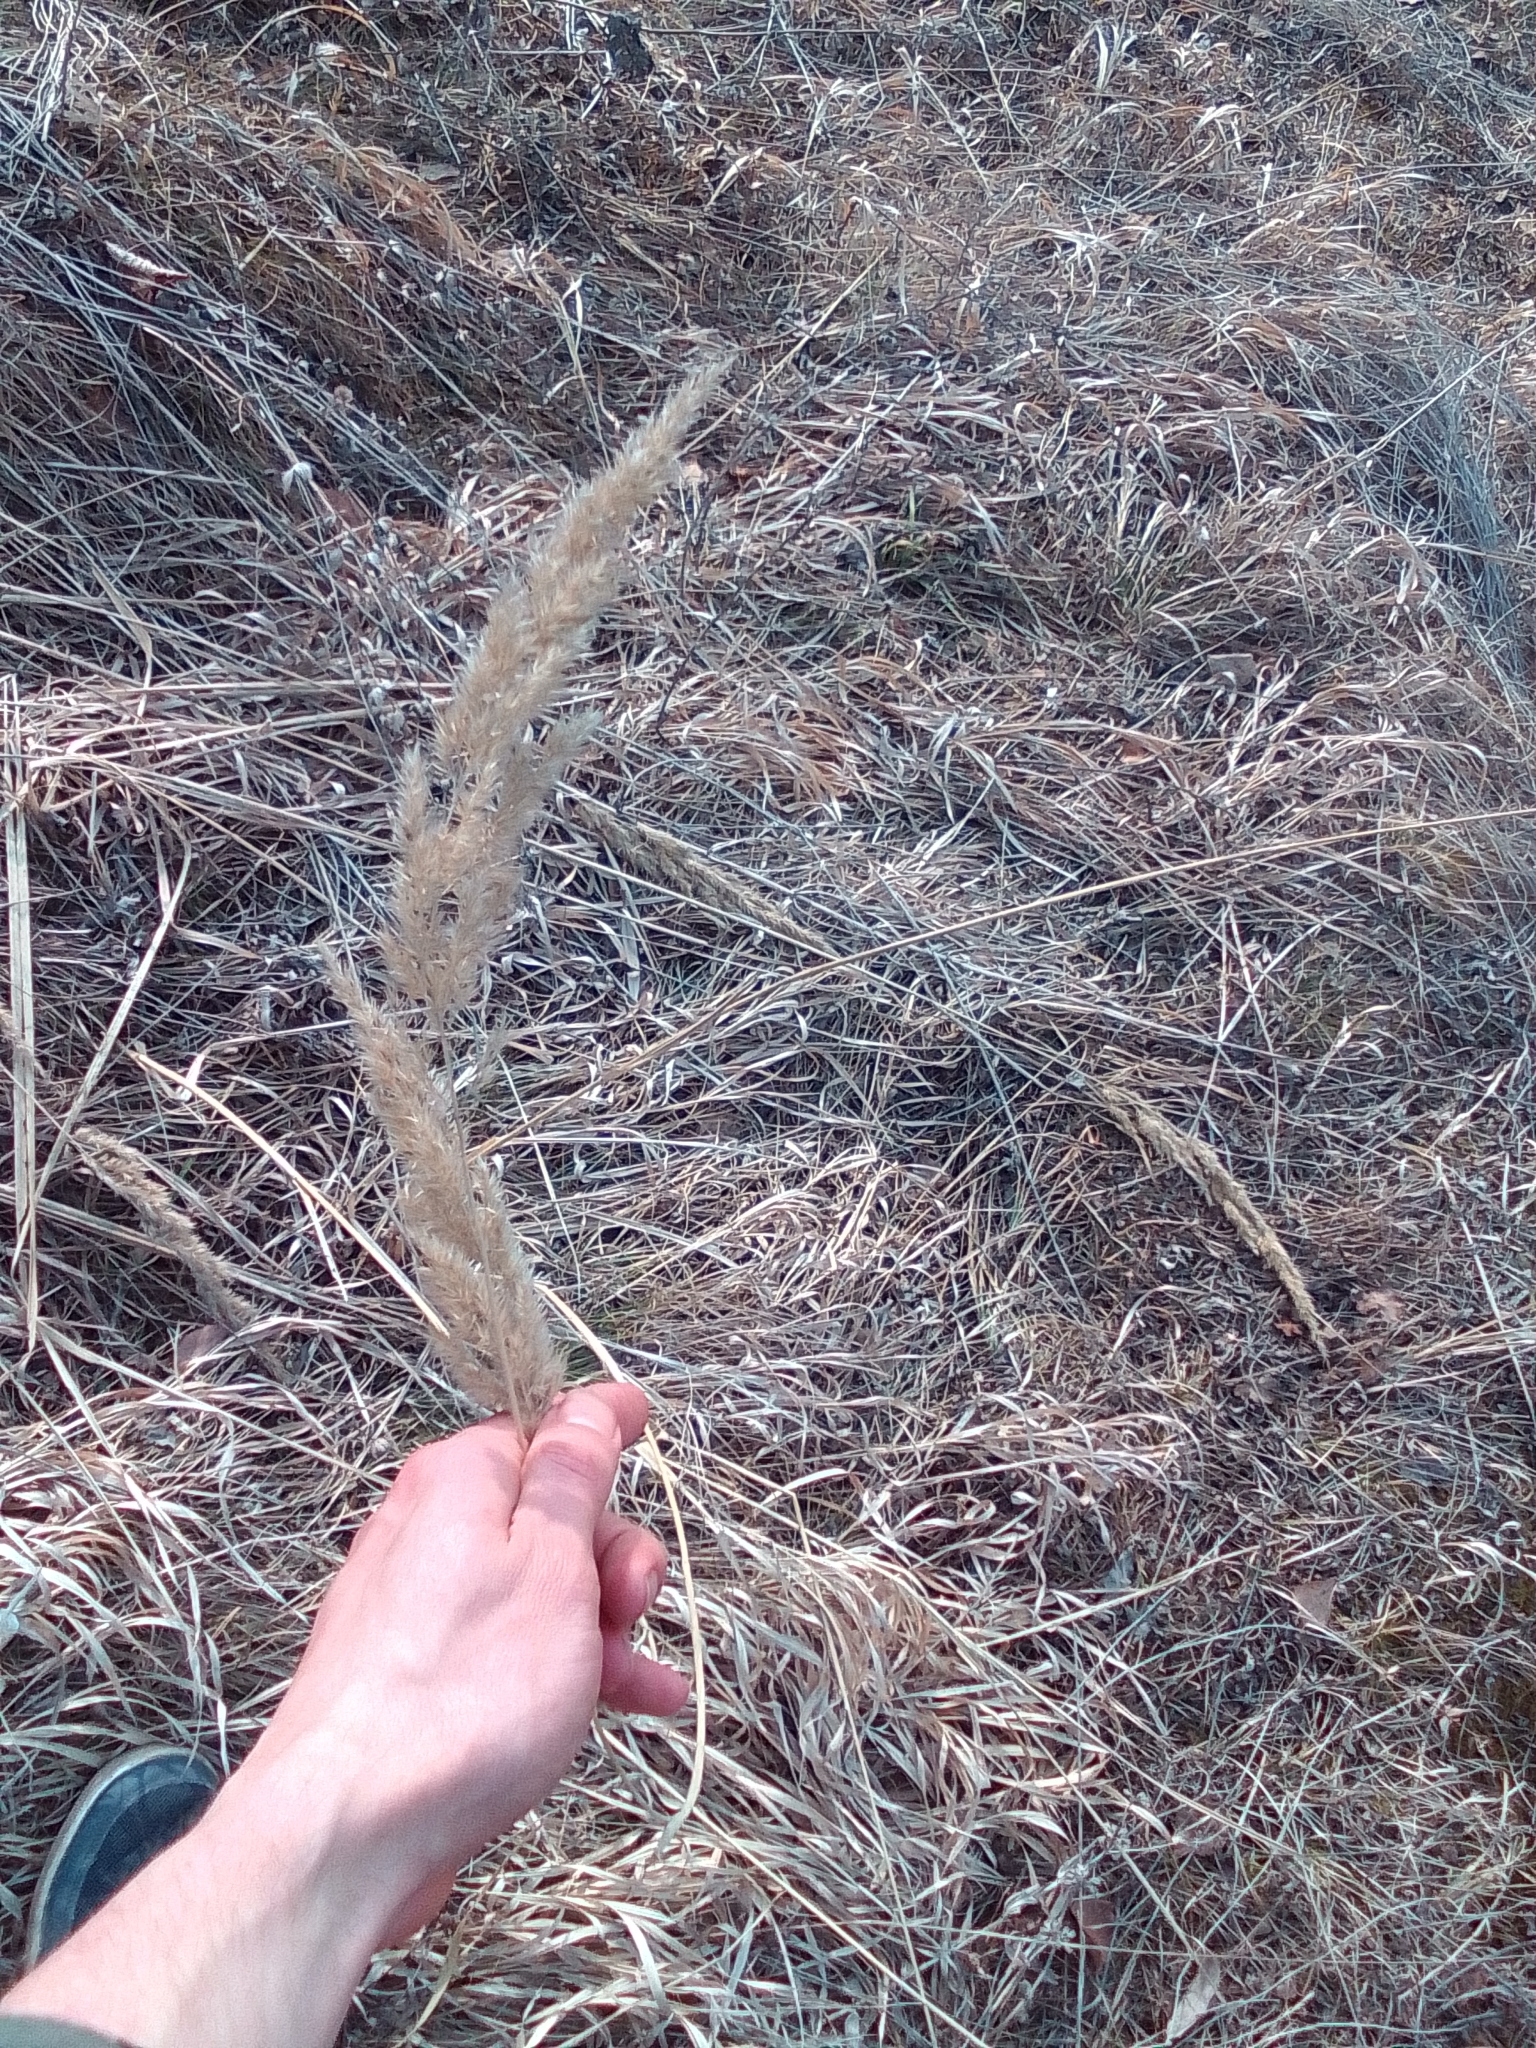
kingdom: Plantae
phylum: Tracheophyta
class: Liliopsida
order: Poales
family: Poaceae
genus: Calamagrostis
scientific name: Calamagrostis epigejos
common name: Wood small-reed
